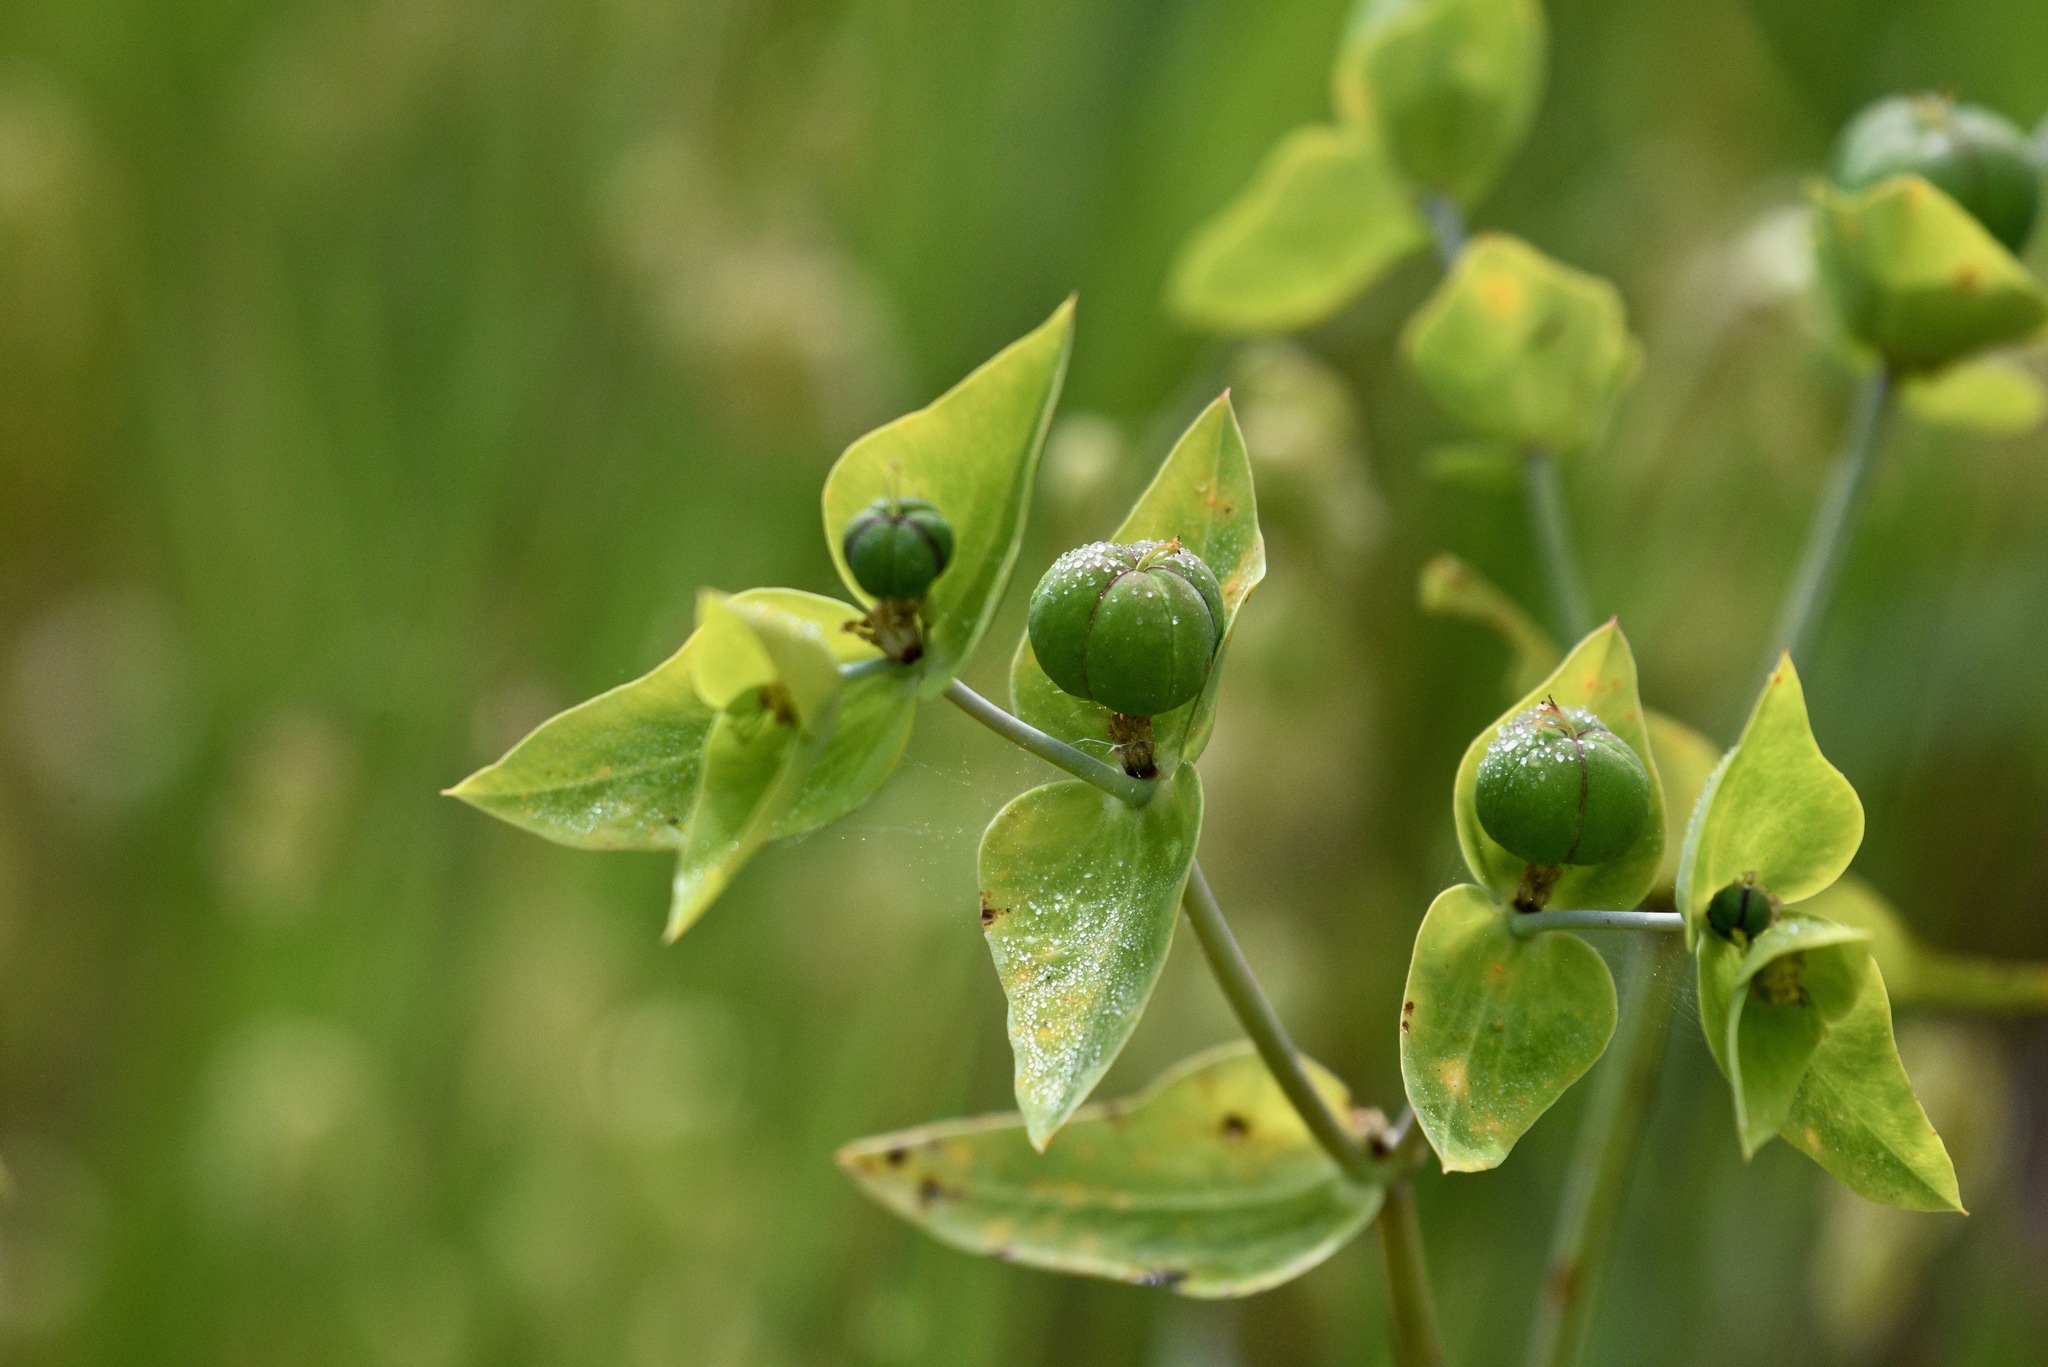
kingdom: Plantae
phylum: Tracheophyta
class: Magnoliopsida
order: Malpighiales
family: Euphorbiaceae
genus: Euphorbia
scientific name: Euphorbia lathyris
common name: Caper spurge
